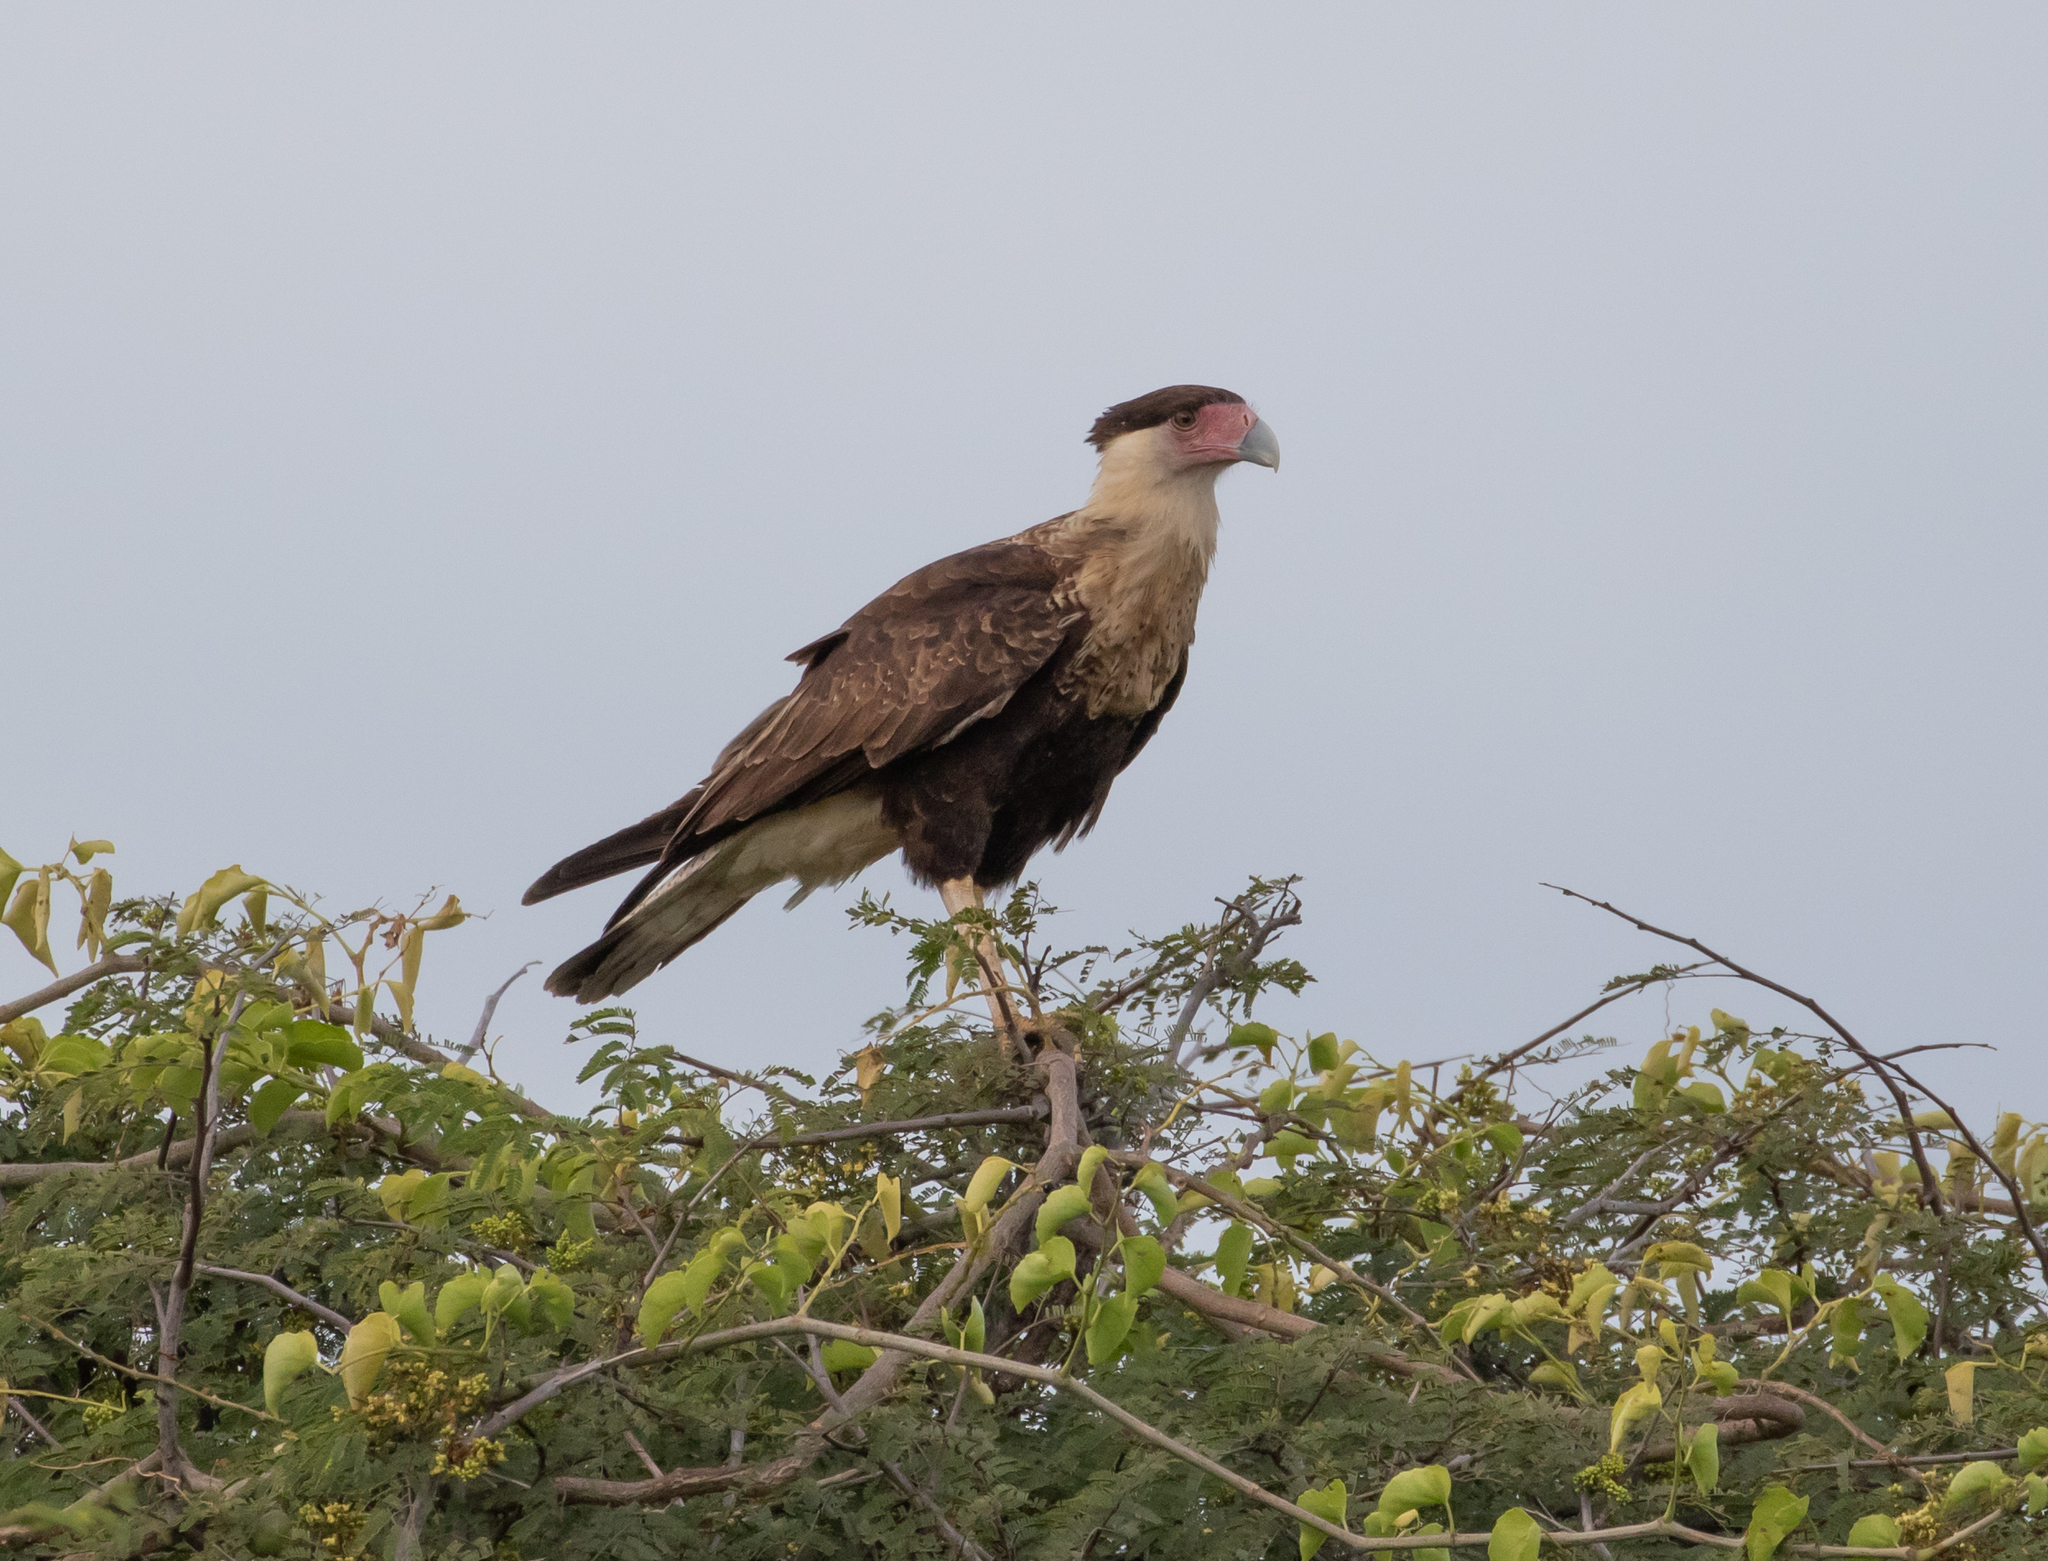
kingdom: Animalia
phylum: Chordata
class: Aves
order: Falconiformes
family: Falconidae
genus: Caracara
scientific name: Caracara plancus
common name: Southern caracara
